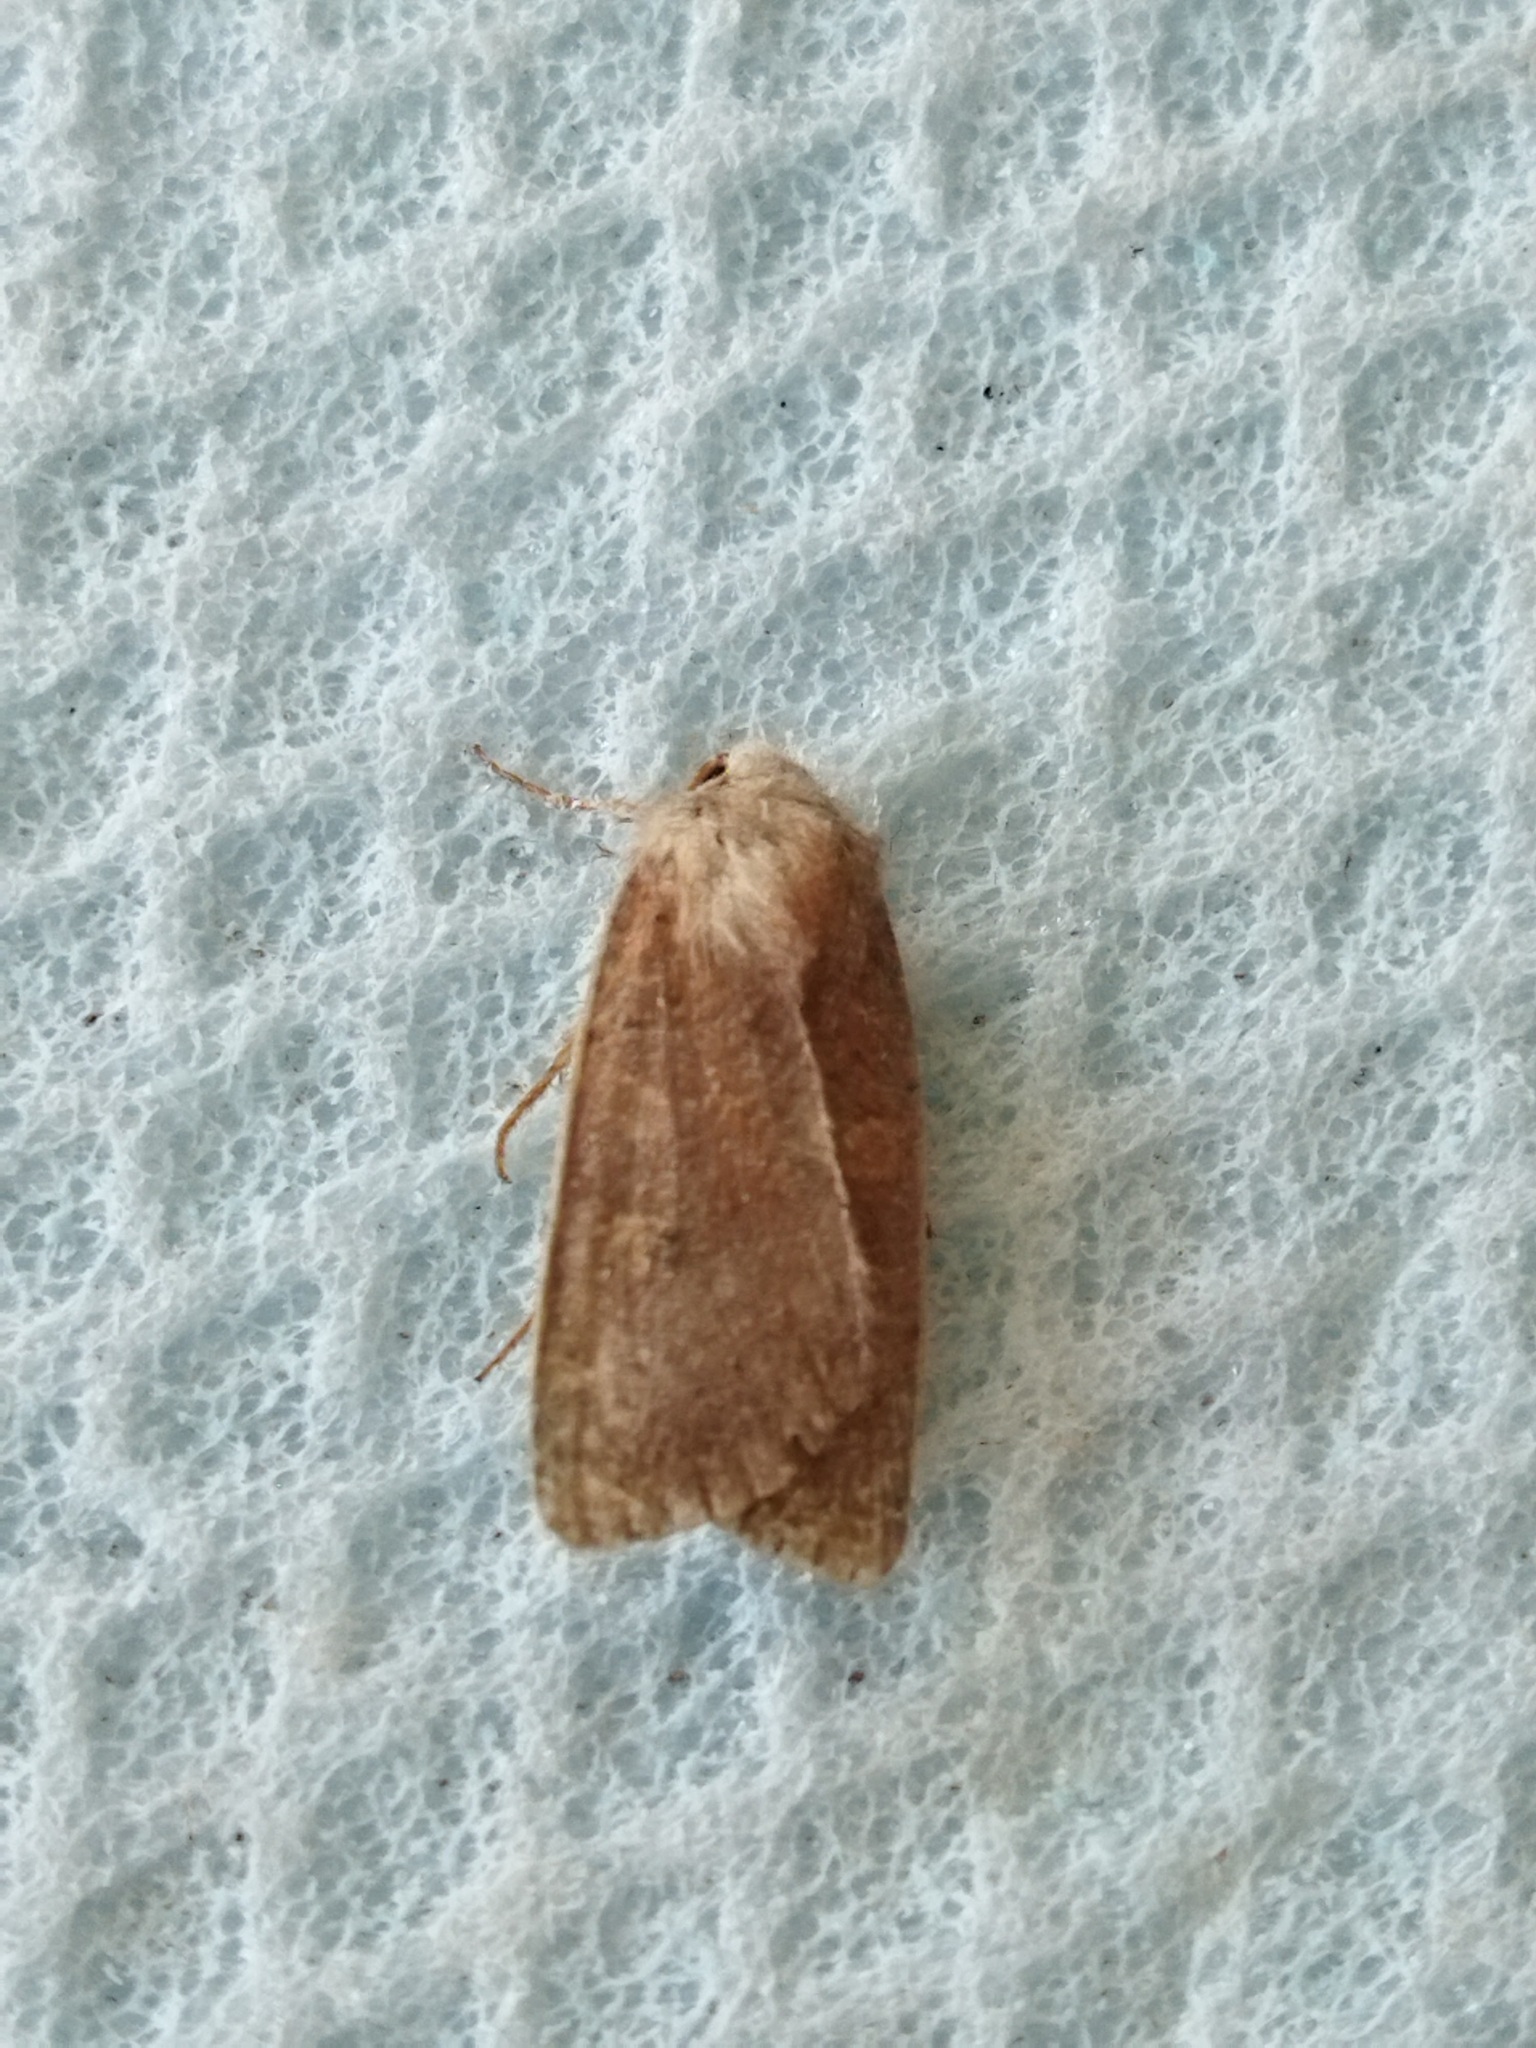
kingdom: Animalia
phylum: Arthropoda
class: Insecta
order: Lepidoptera
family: Noctuidae
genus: Xestia
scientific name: Xestia xanthographa
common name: Square-spot rustic
